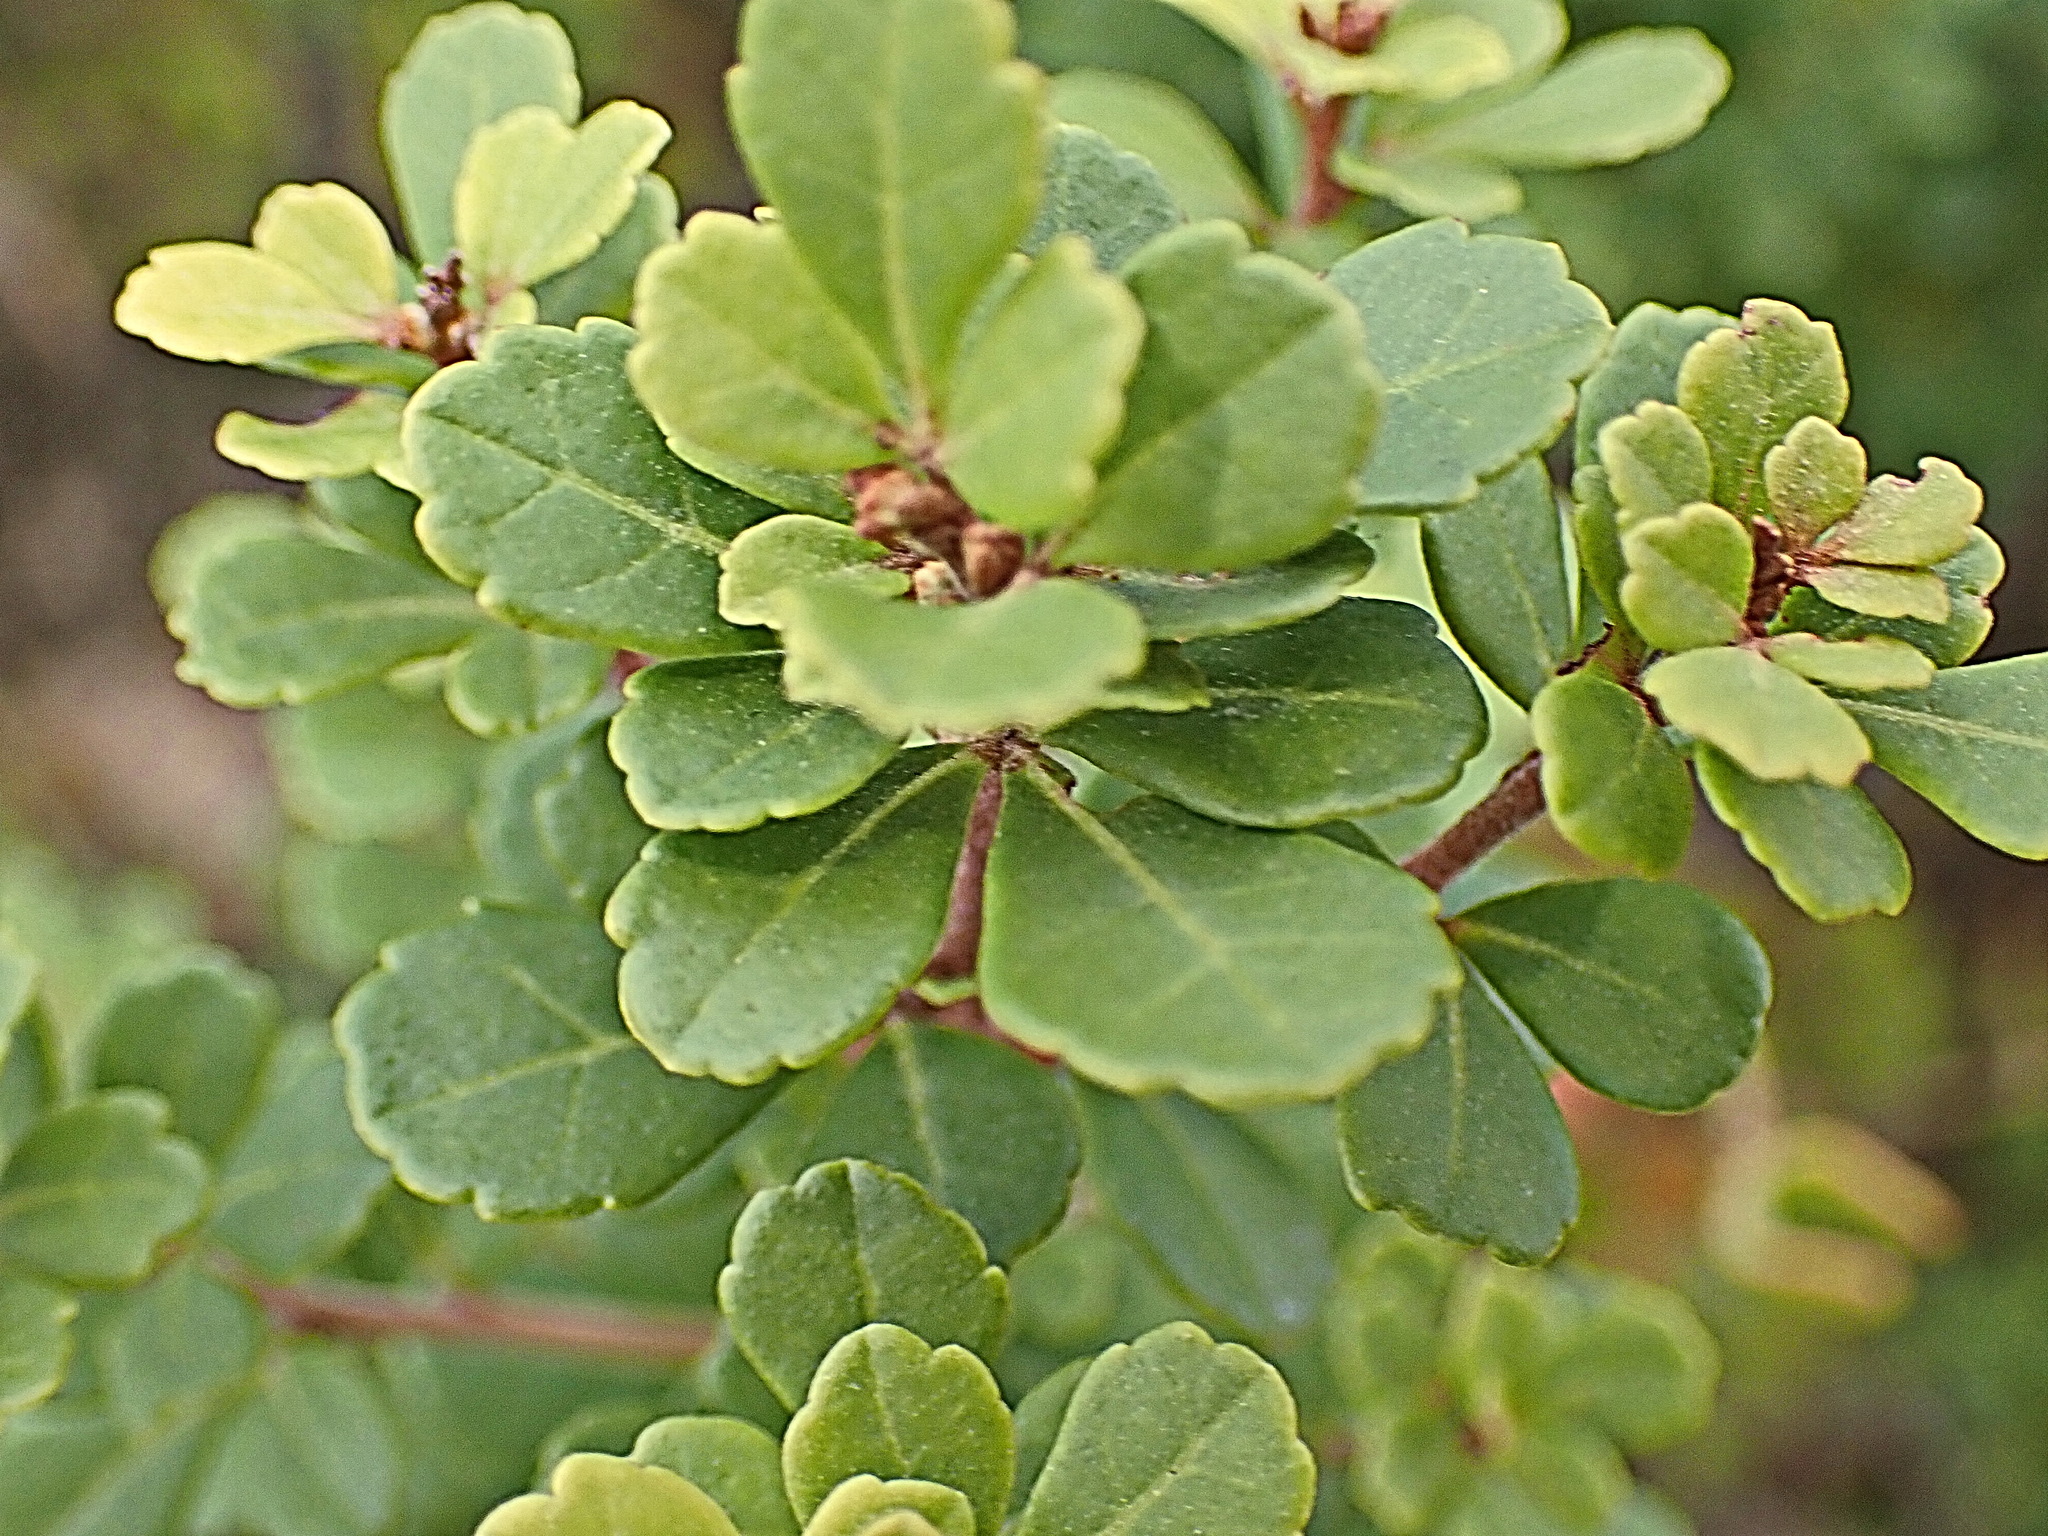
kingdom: Plantae
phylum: Tracheophyta
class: Magnoliopsida
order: Sapindales
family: Anacardiaceae
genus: Searsia
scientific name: Searsia crenata
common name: Crowberry
